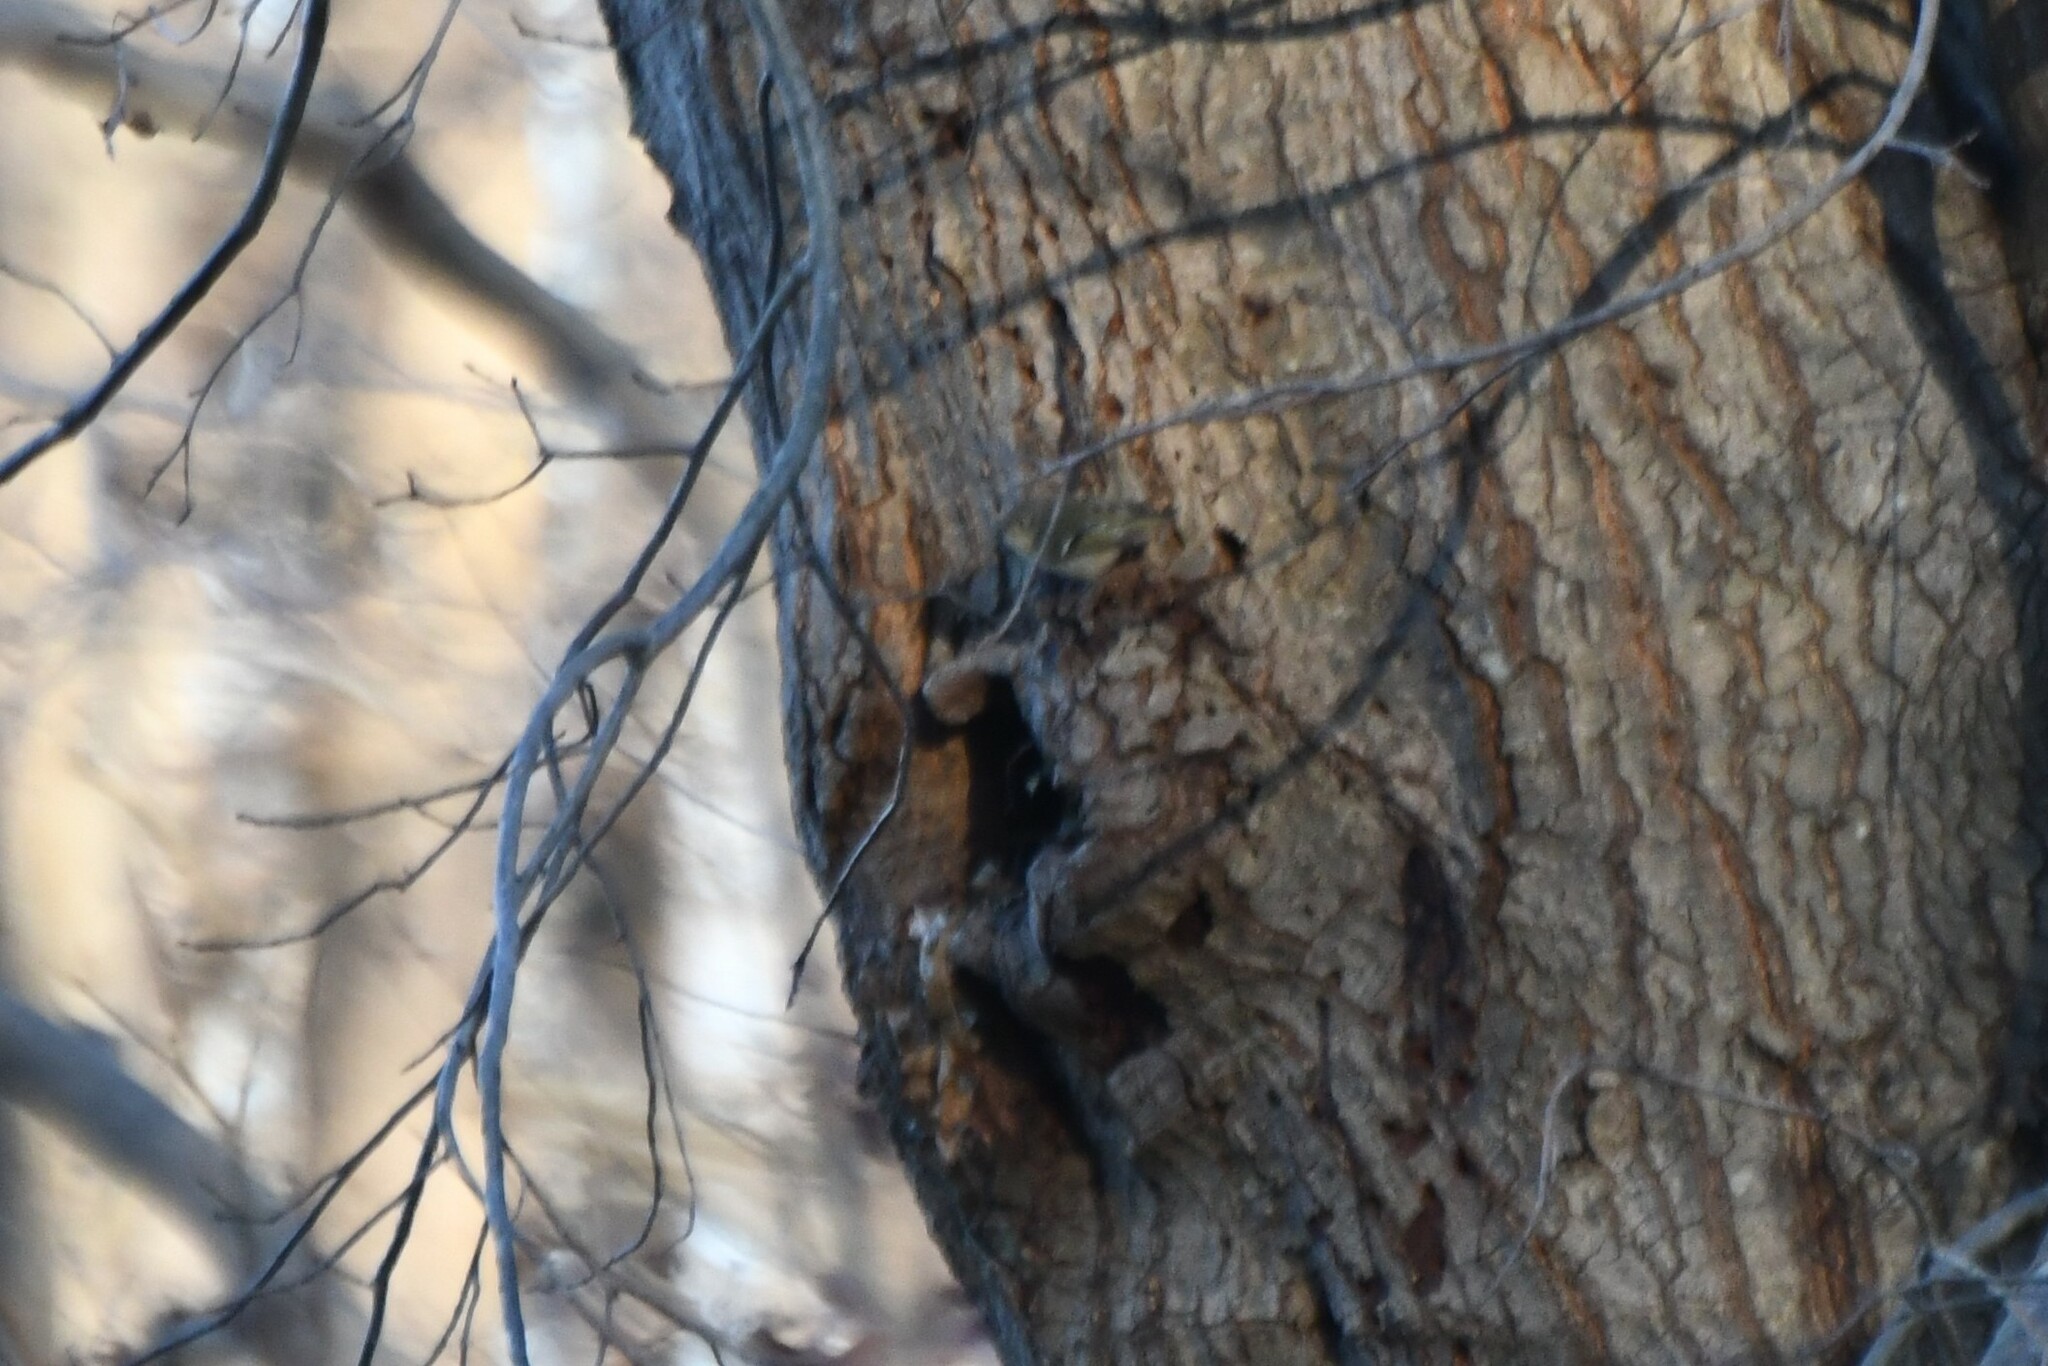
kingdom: Animalia
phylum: Chordata
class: Aves
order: Passeriformes
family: Regulidae
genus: Regulus
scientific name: Regulus calendula
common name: Ruby-crowned kinglet
